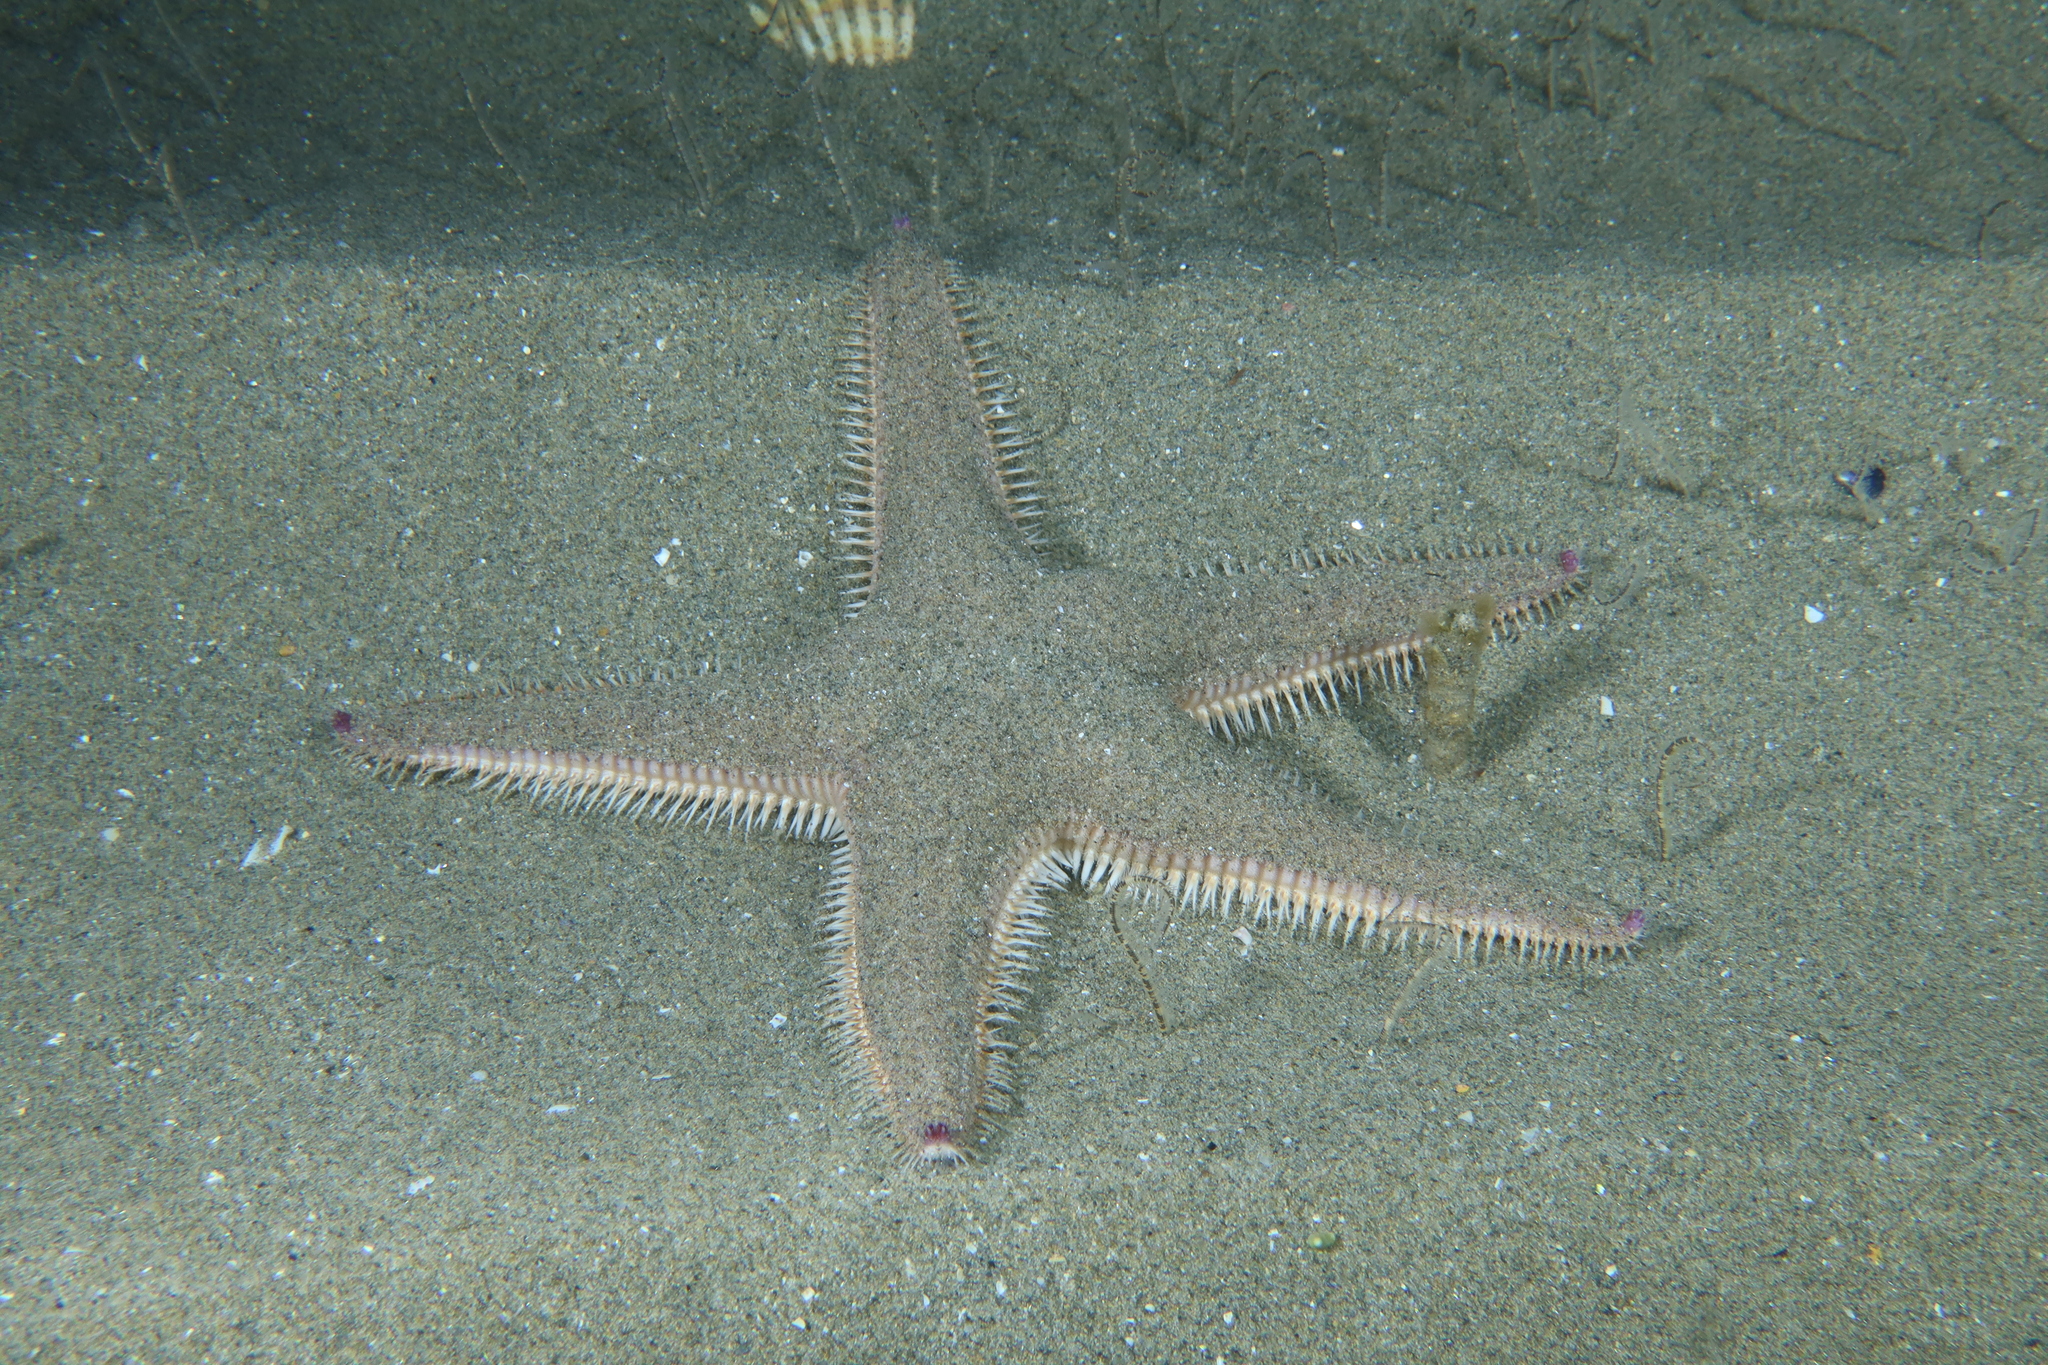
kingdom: Animalia
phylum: Echinodermata
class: Asteroidea
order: Paxillosida
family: Astropectinidae
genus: Astropecten
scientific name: Astropecten irregularis
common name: Sand star
